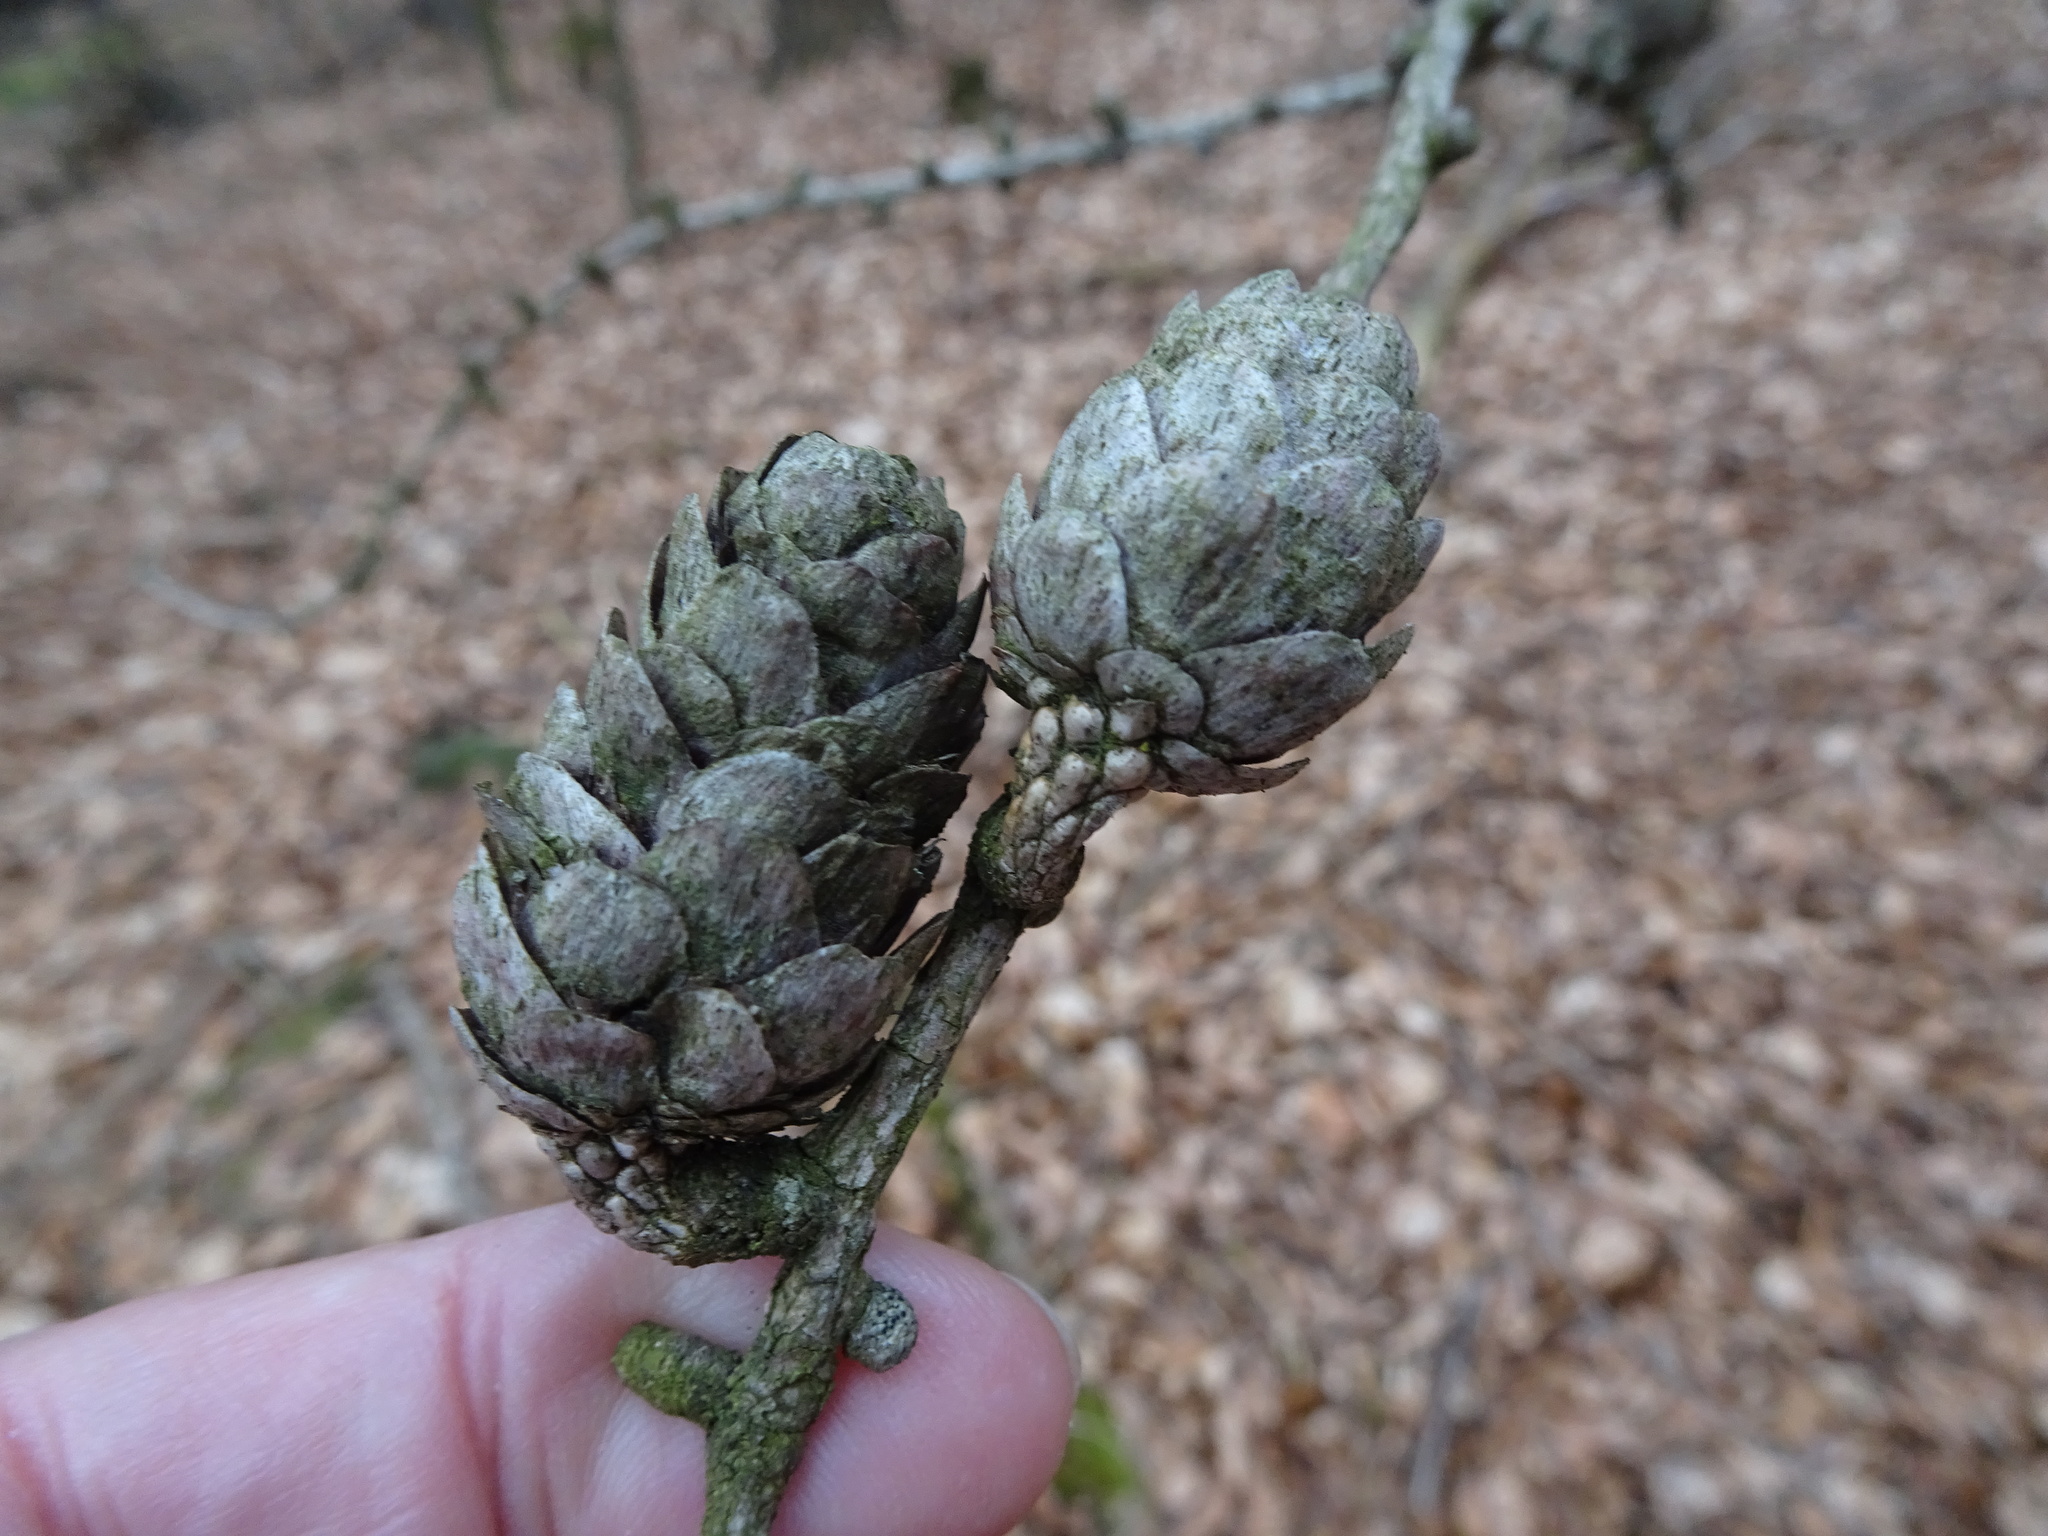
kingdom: Plantae
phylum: Tracheophyta
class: Pinopsida
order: Pinales
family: Pinaceae
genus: Larix
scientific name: Larix decidua
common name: European larch
